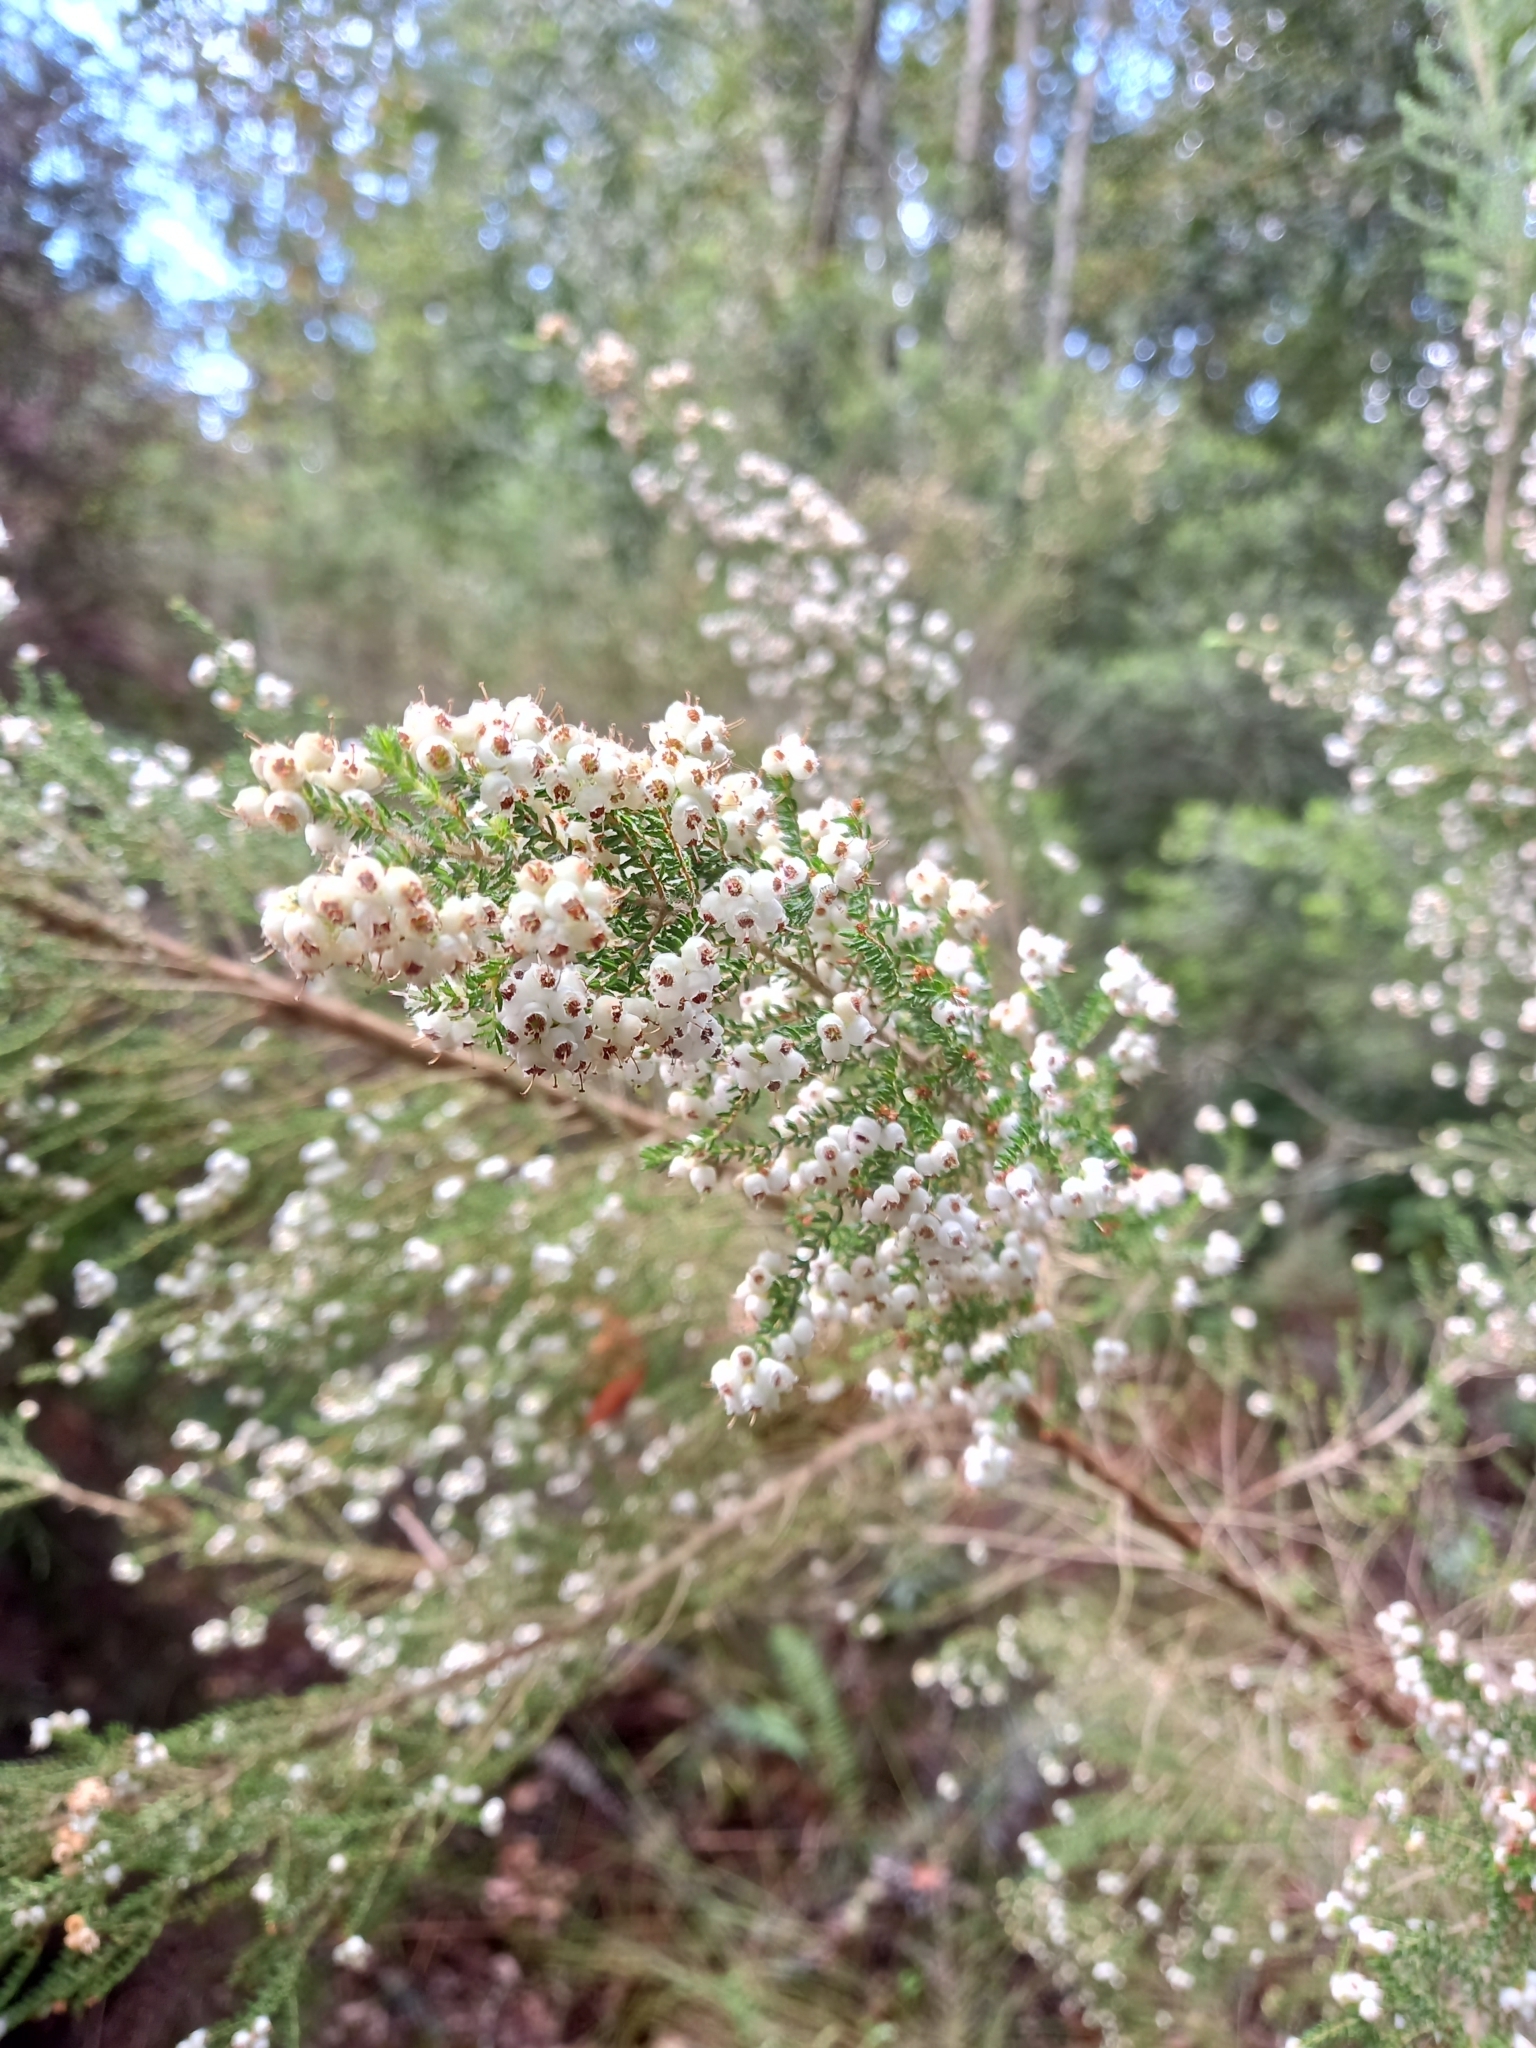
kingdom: Plantae
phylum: Tracheophyta
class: Magnoliopsida
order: Ericales
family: Ericaceae
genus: Erica
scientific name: Erica scabriuscula
